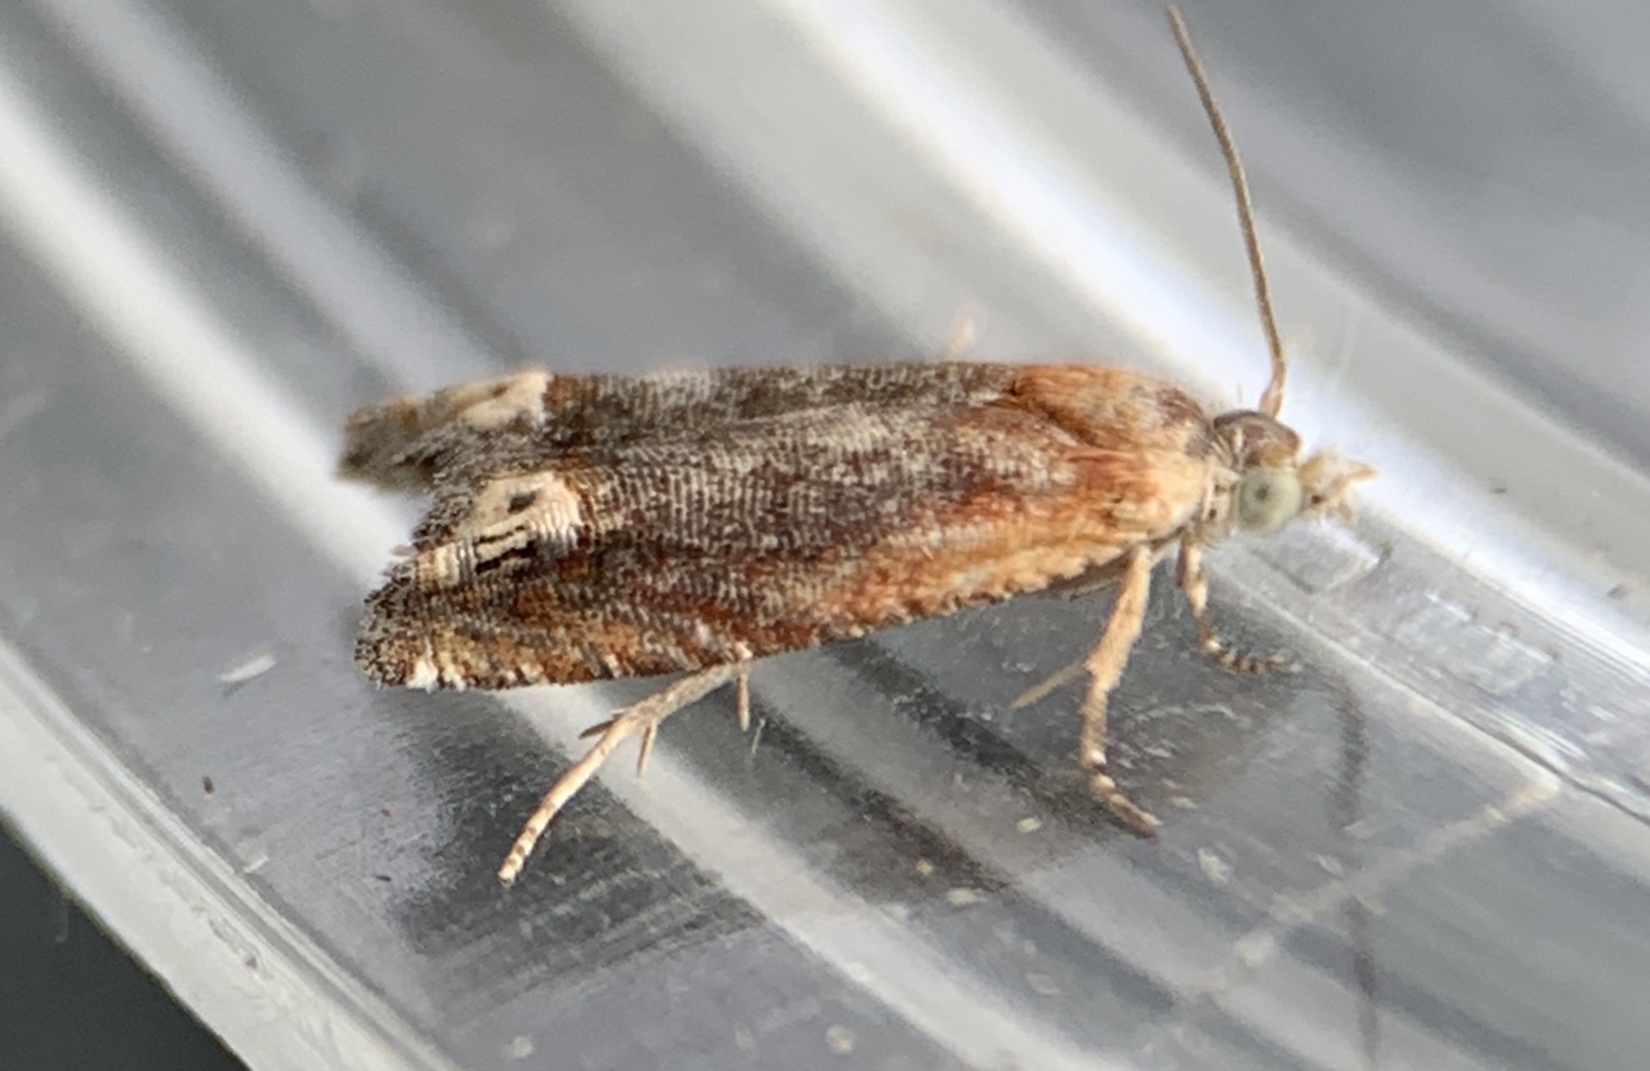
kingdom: Animalia
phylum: Arthropoda
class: Insecta
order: Lepidoptera
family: Tortricidae
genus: Eucosma
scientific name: Eucosma raracana
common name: Reddish eucosma moth
